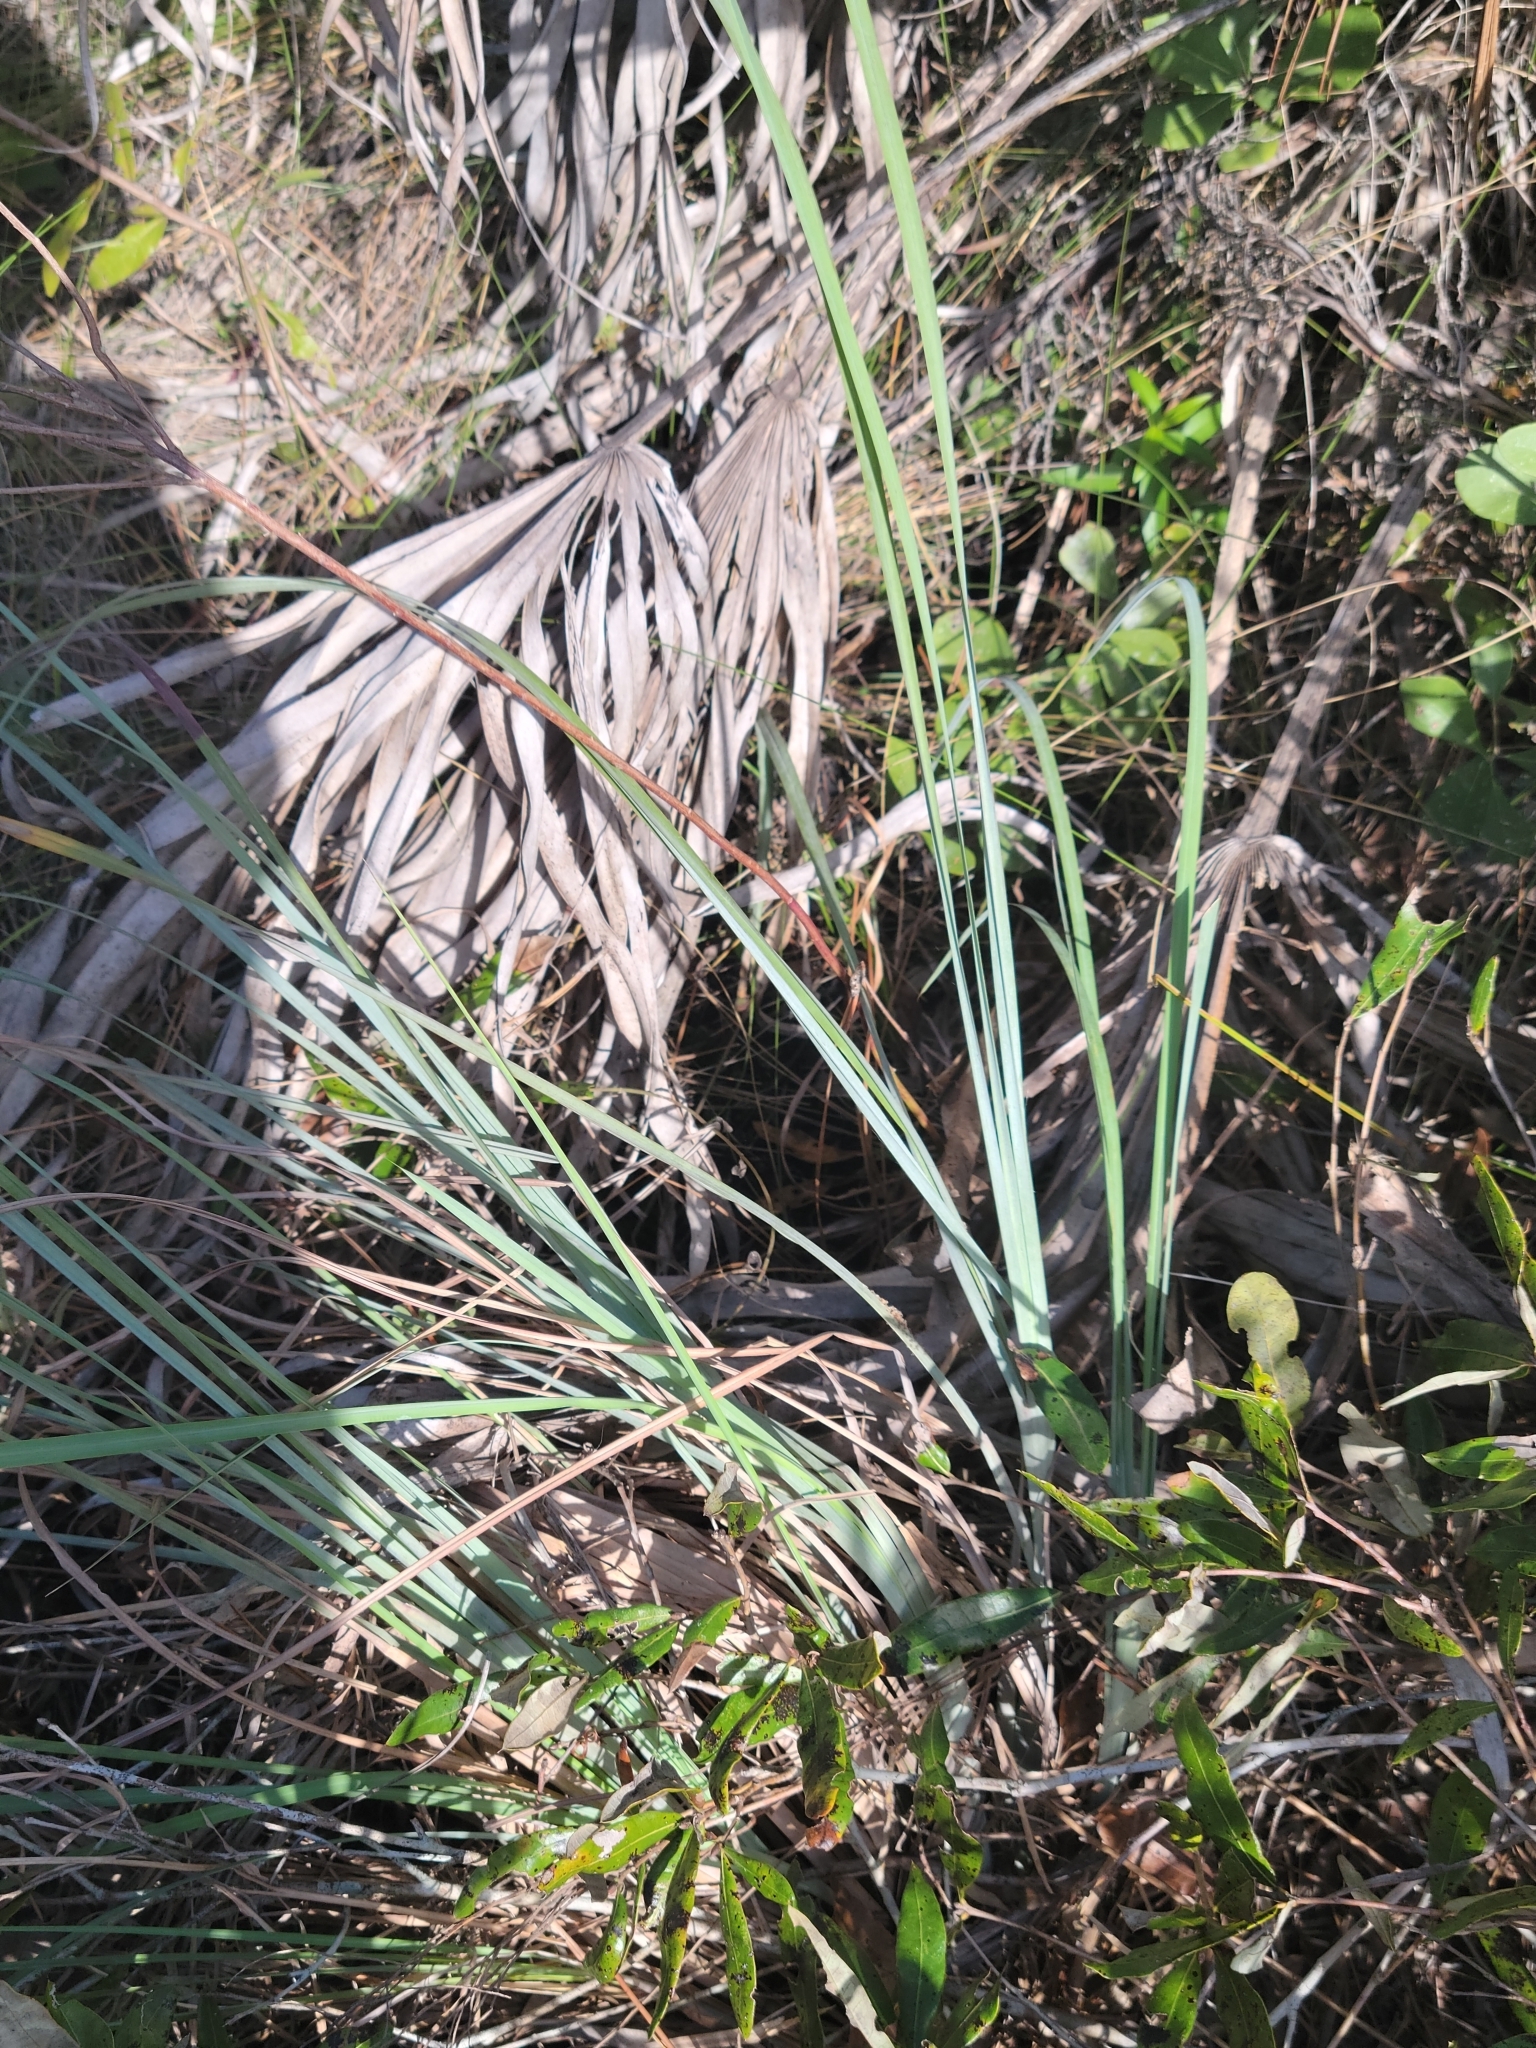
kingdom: Plantae
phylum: Tracheophyta
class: Liliopsida
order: Poales
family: Poaceae
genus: Andropogon
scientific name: Andropogon cretaceus
